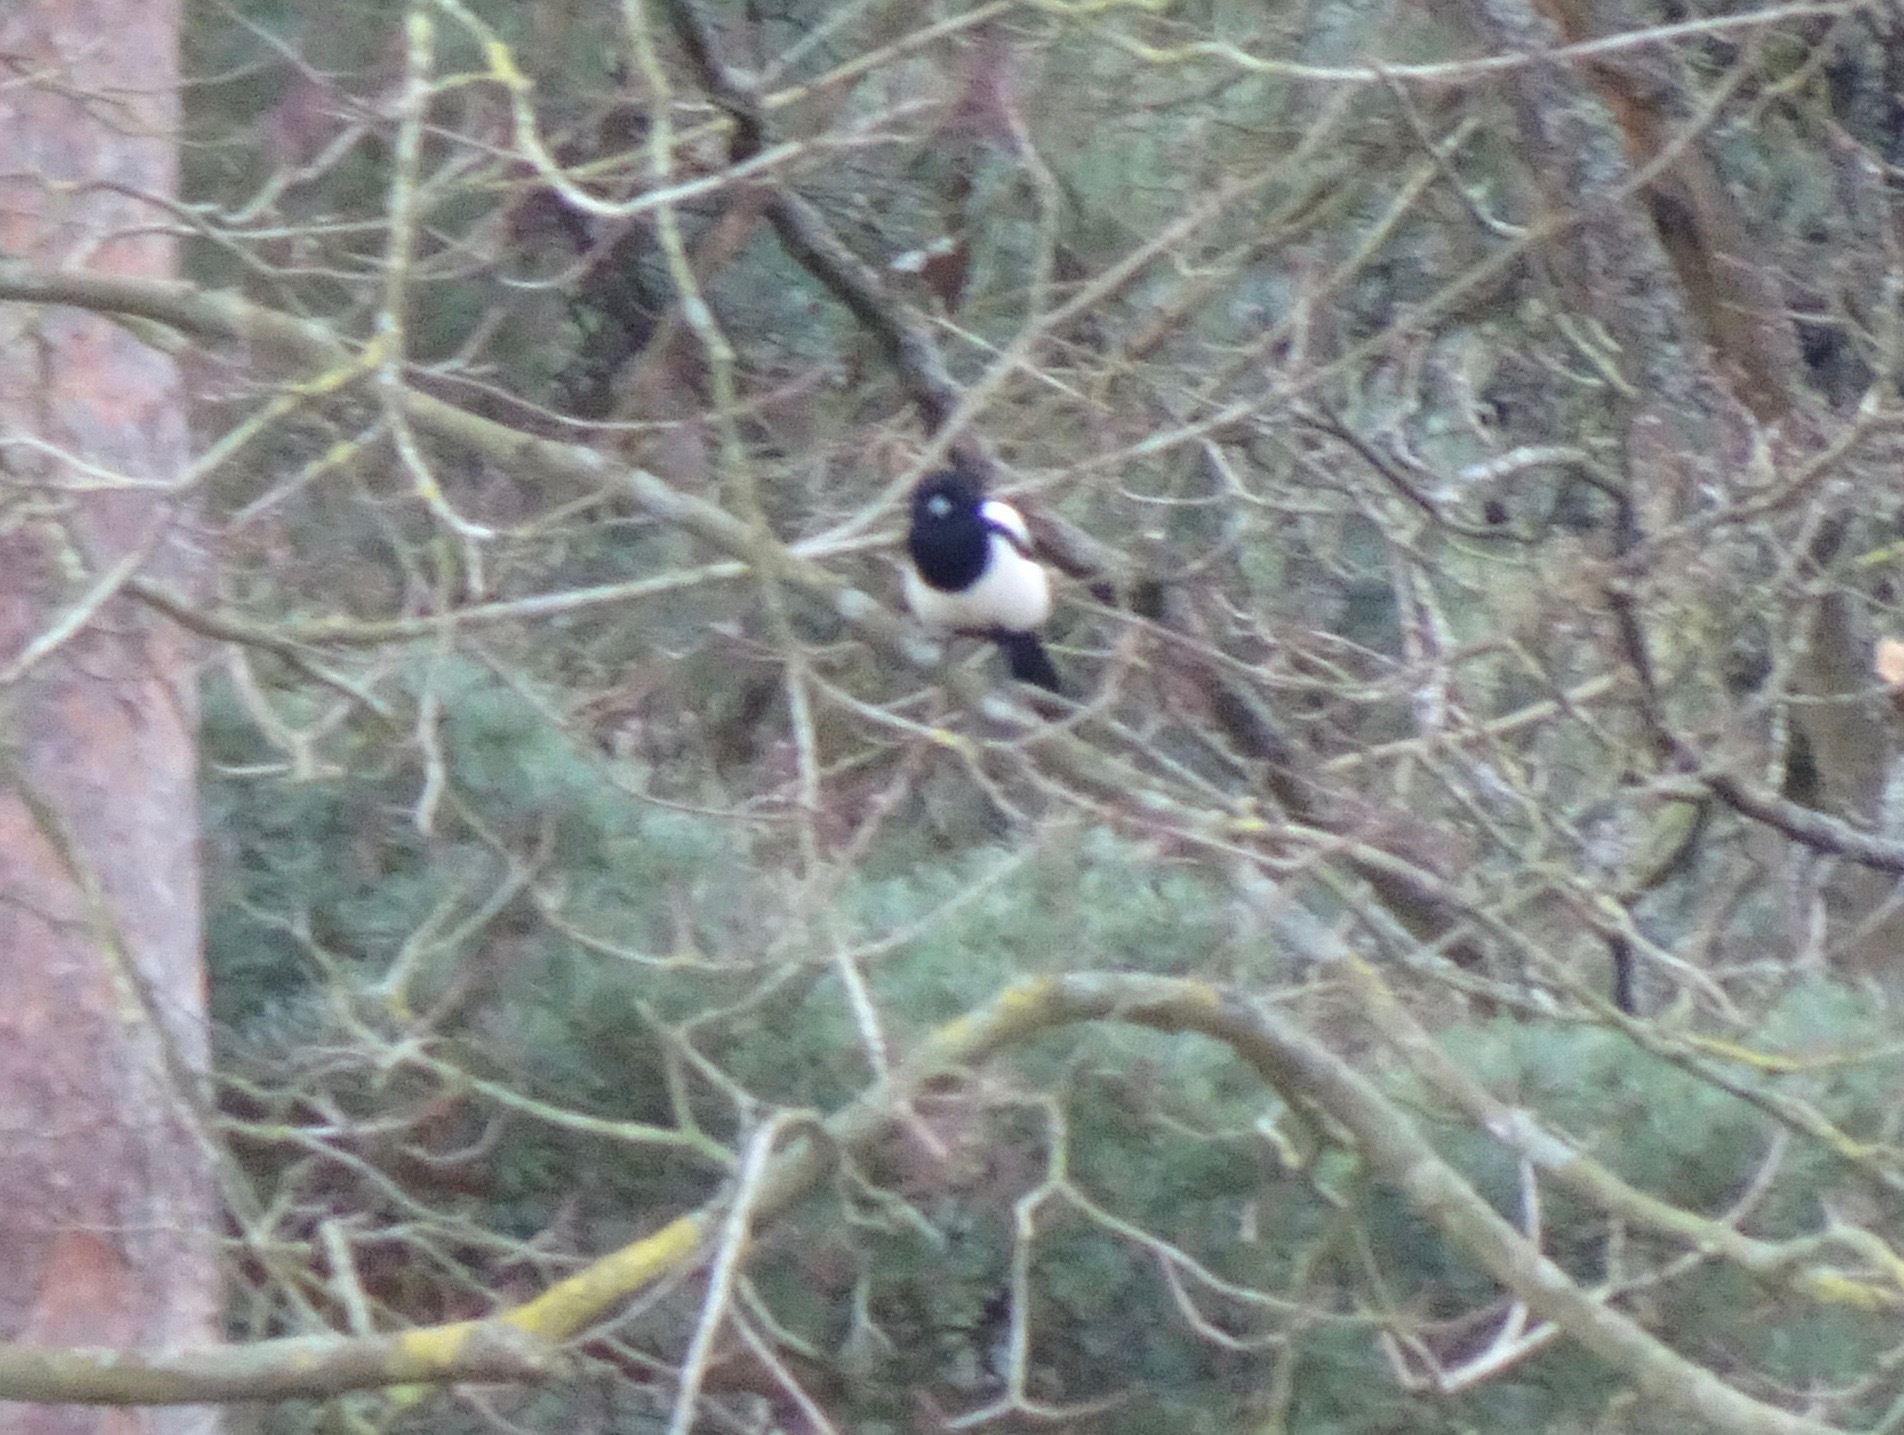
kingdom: Animalia
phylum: Chordata
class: Aves
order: Passeriformes
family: Corvidae
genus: Pica
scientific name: Pica pica
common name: Eurasian magpie
